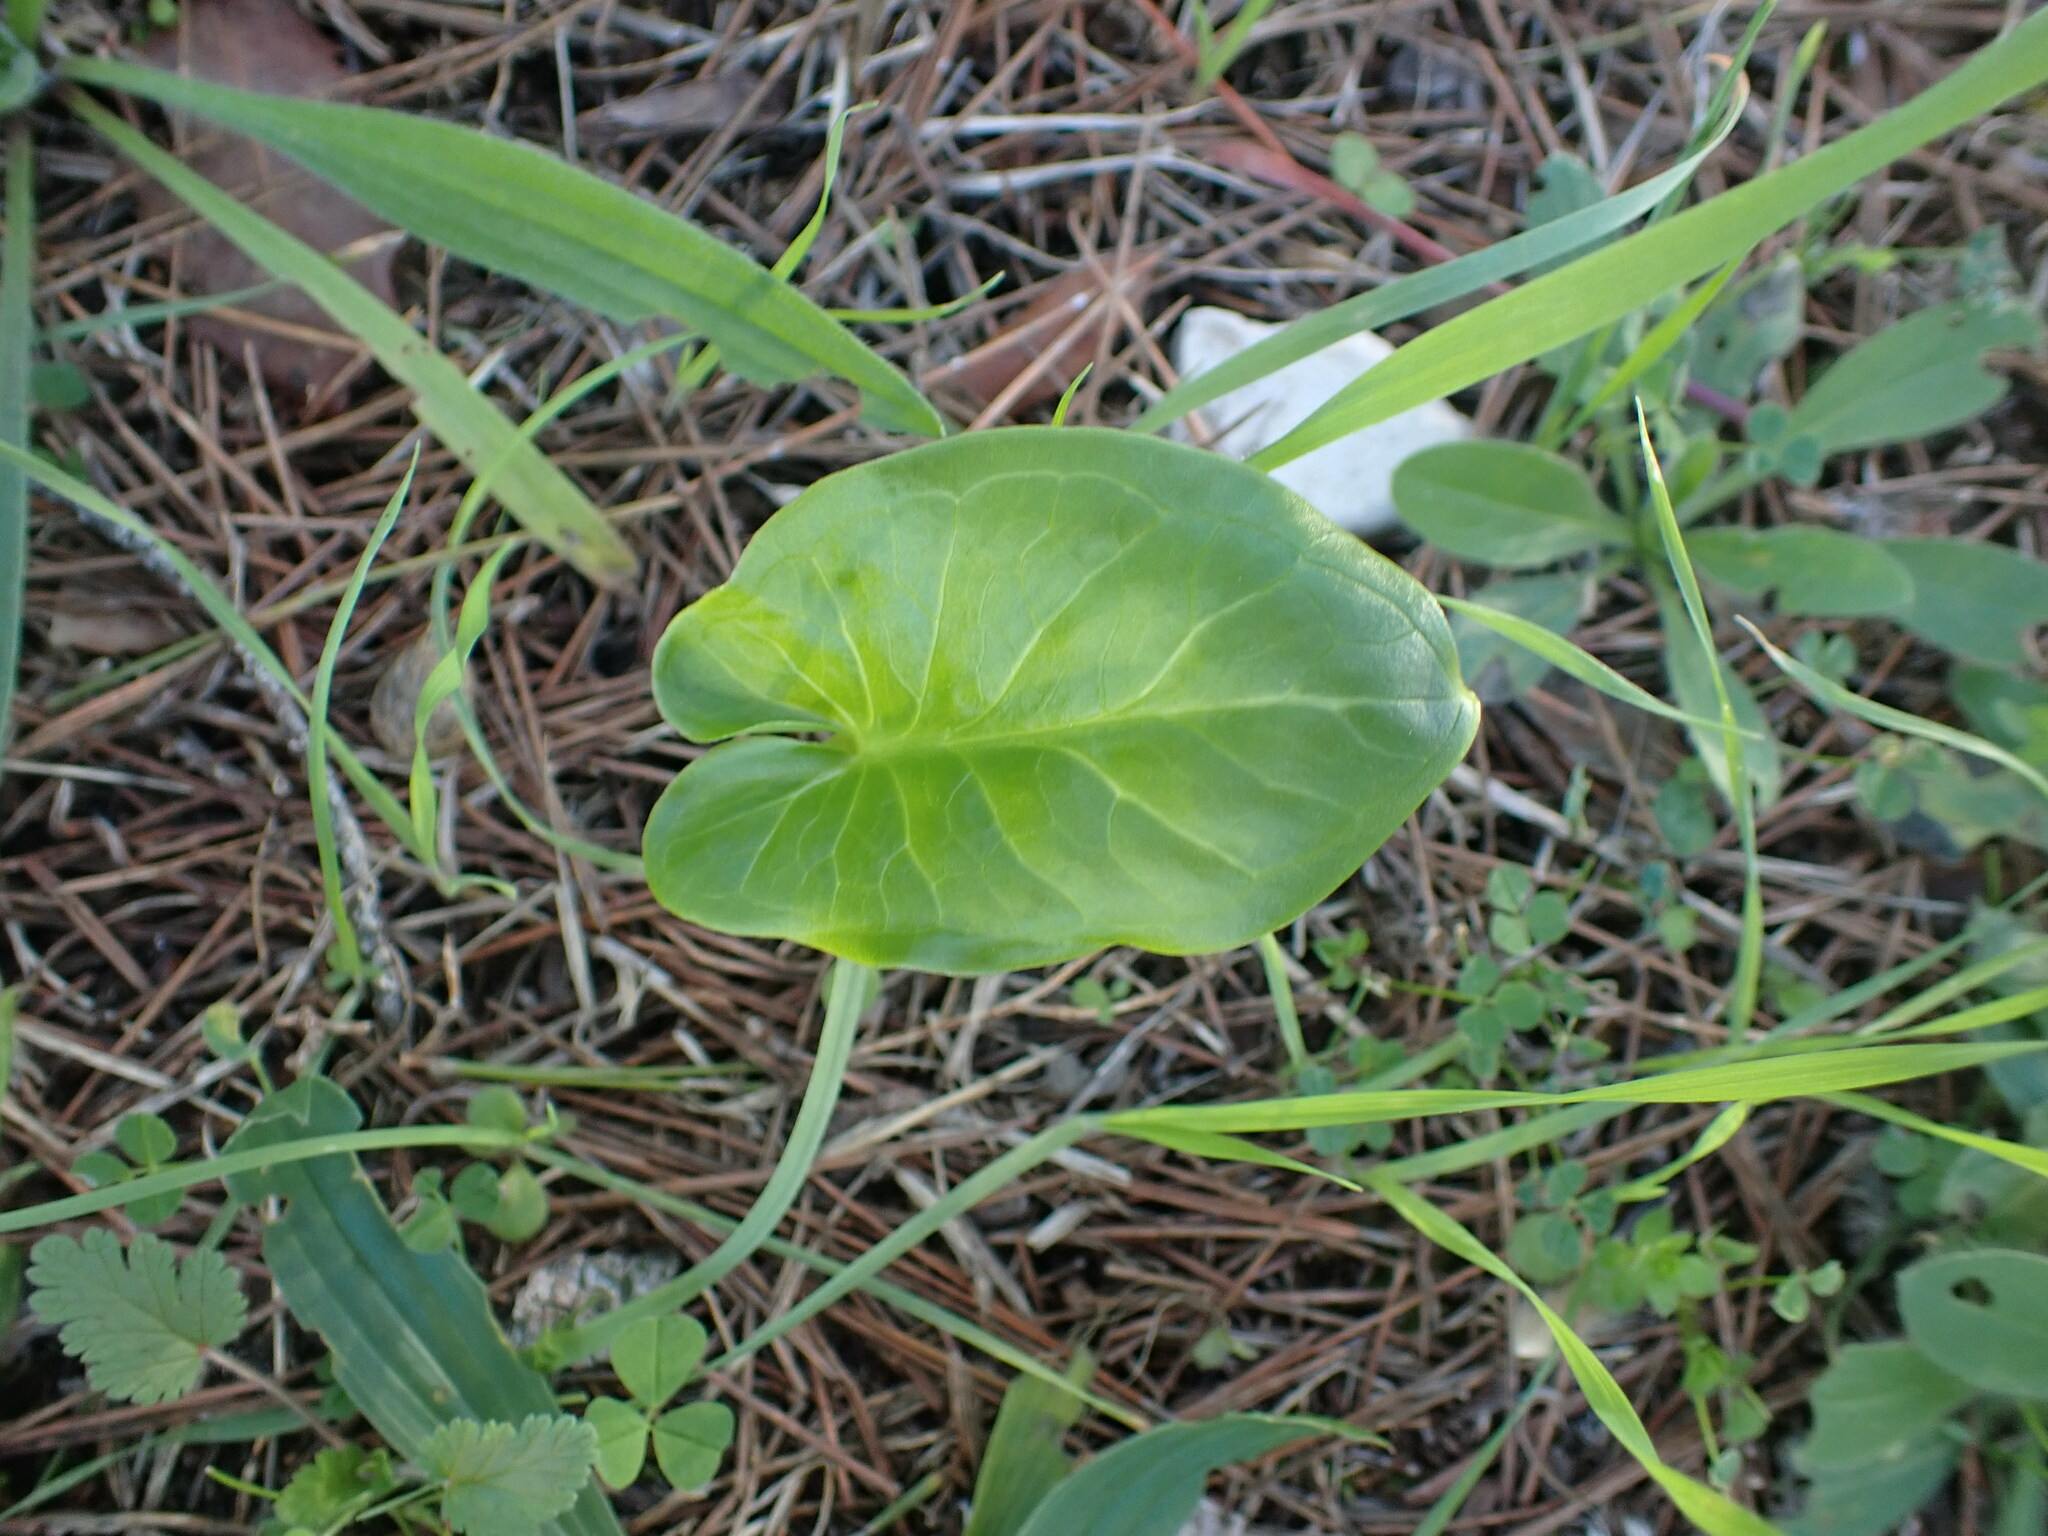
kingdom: Plantae
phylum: Tracheophyta
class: Liliopsida
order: Alismatales
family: Araceae
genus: Arum
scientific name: Arum italicum
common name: Italian lords-and-ladies
